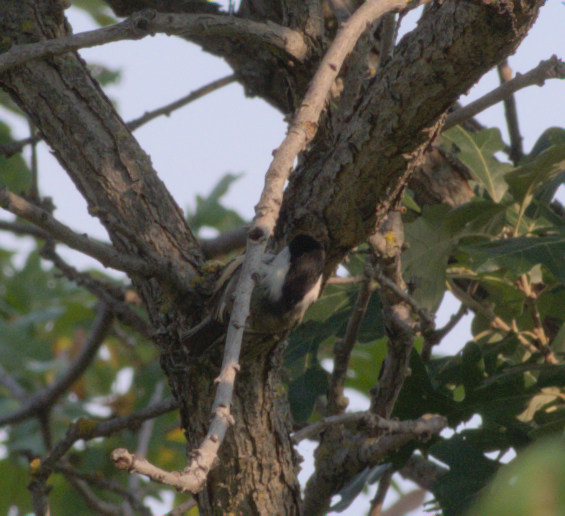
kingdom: Animalia
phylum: Chordata
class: Aves
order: Passeriformes
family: Paridae
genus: Poecile
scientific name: Poecile atricapillus
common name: Black-capped chickadee
